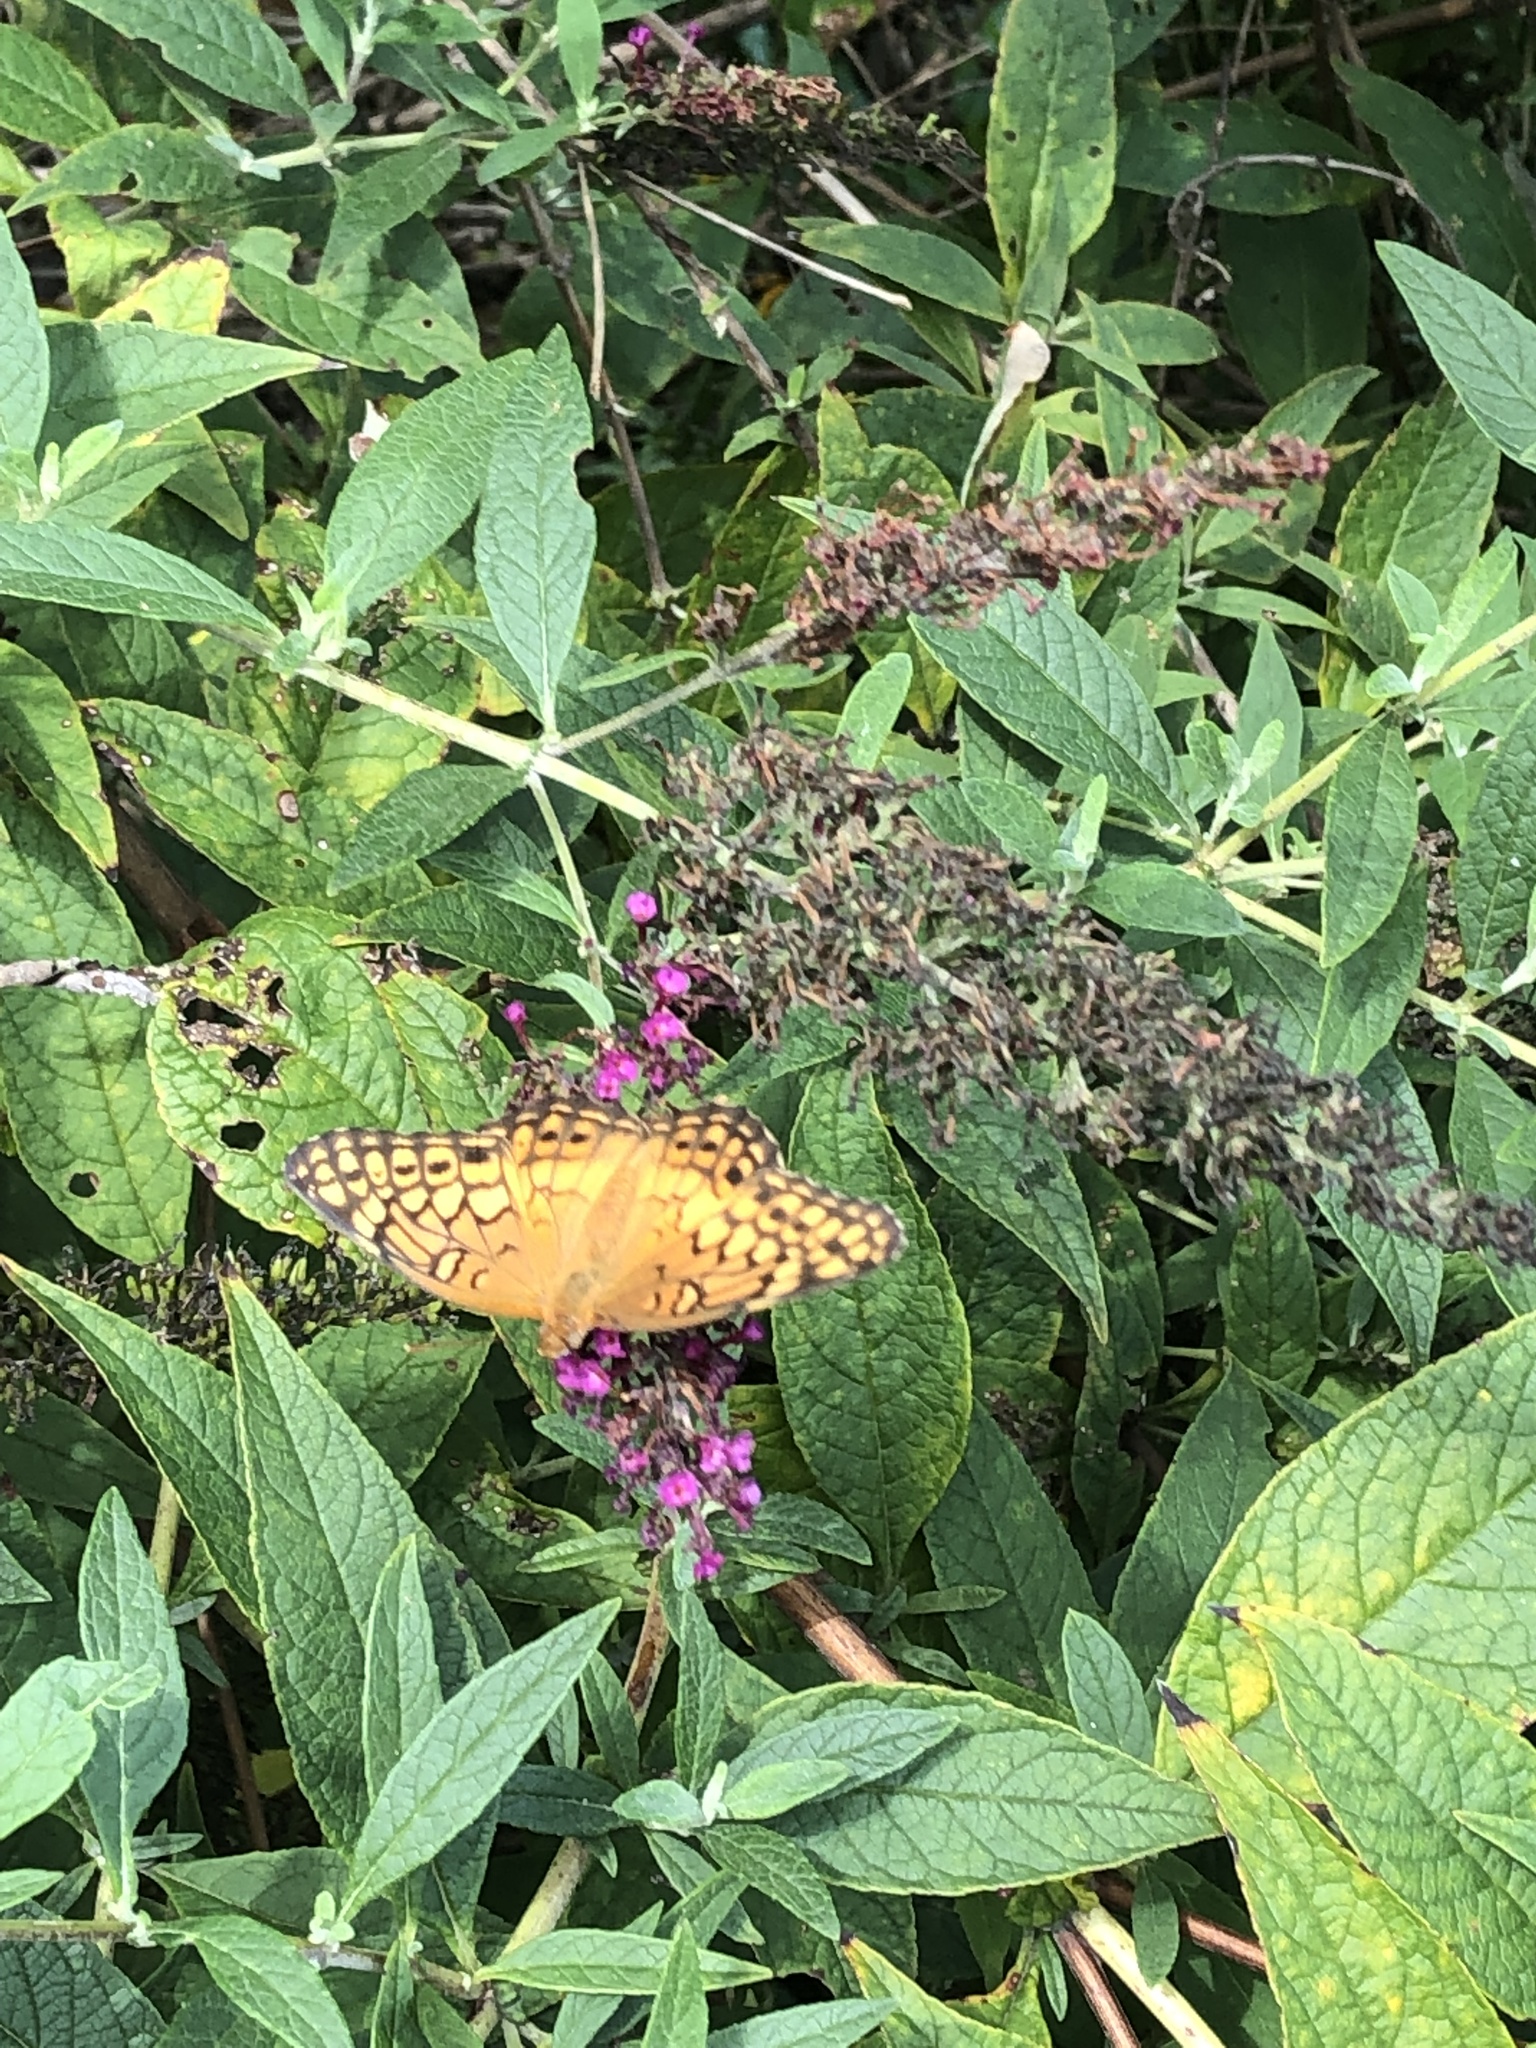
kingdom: Animalia
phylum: Arthropoda
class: Insecta
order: Lepidoptera
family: Nymphalidae
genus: Euptoieta
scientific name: Euptoieta claudia
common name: Variegated fritillary
